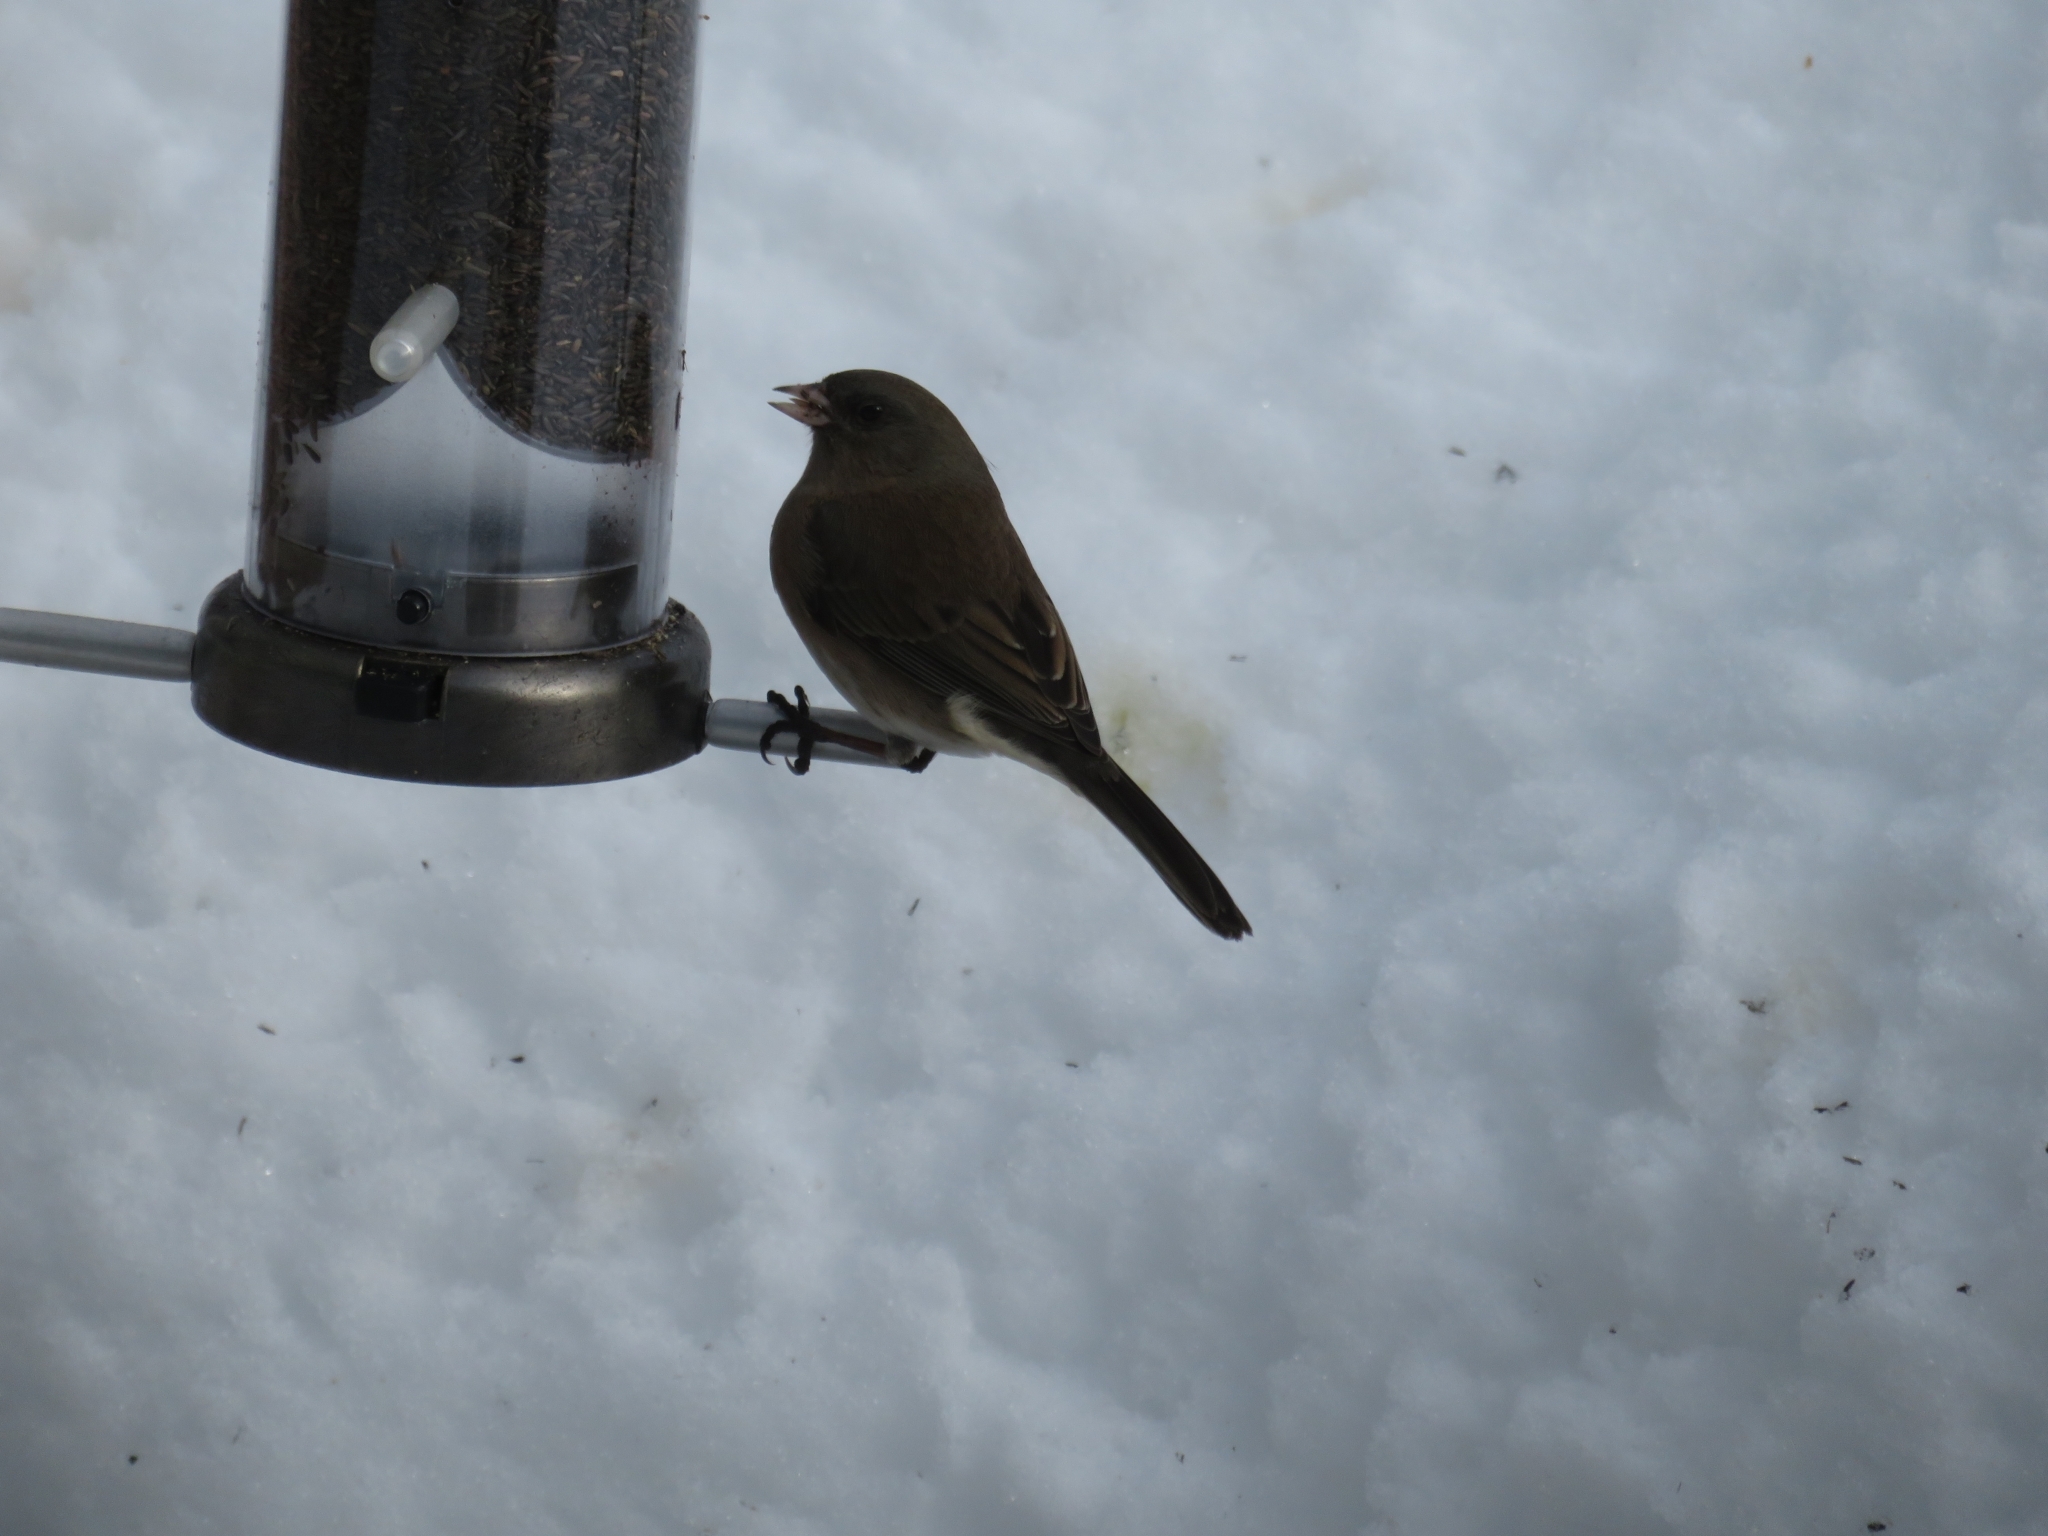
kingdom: Animalia
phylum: Chordata
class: Aves
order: Passeriformes
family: Passerellidae
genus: Junco
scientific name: Junco hyemalis
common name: Dark-eyed junco
